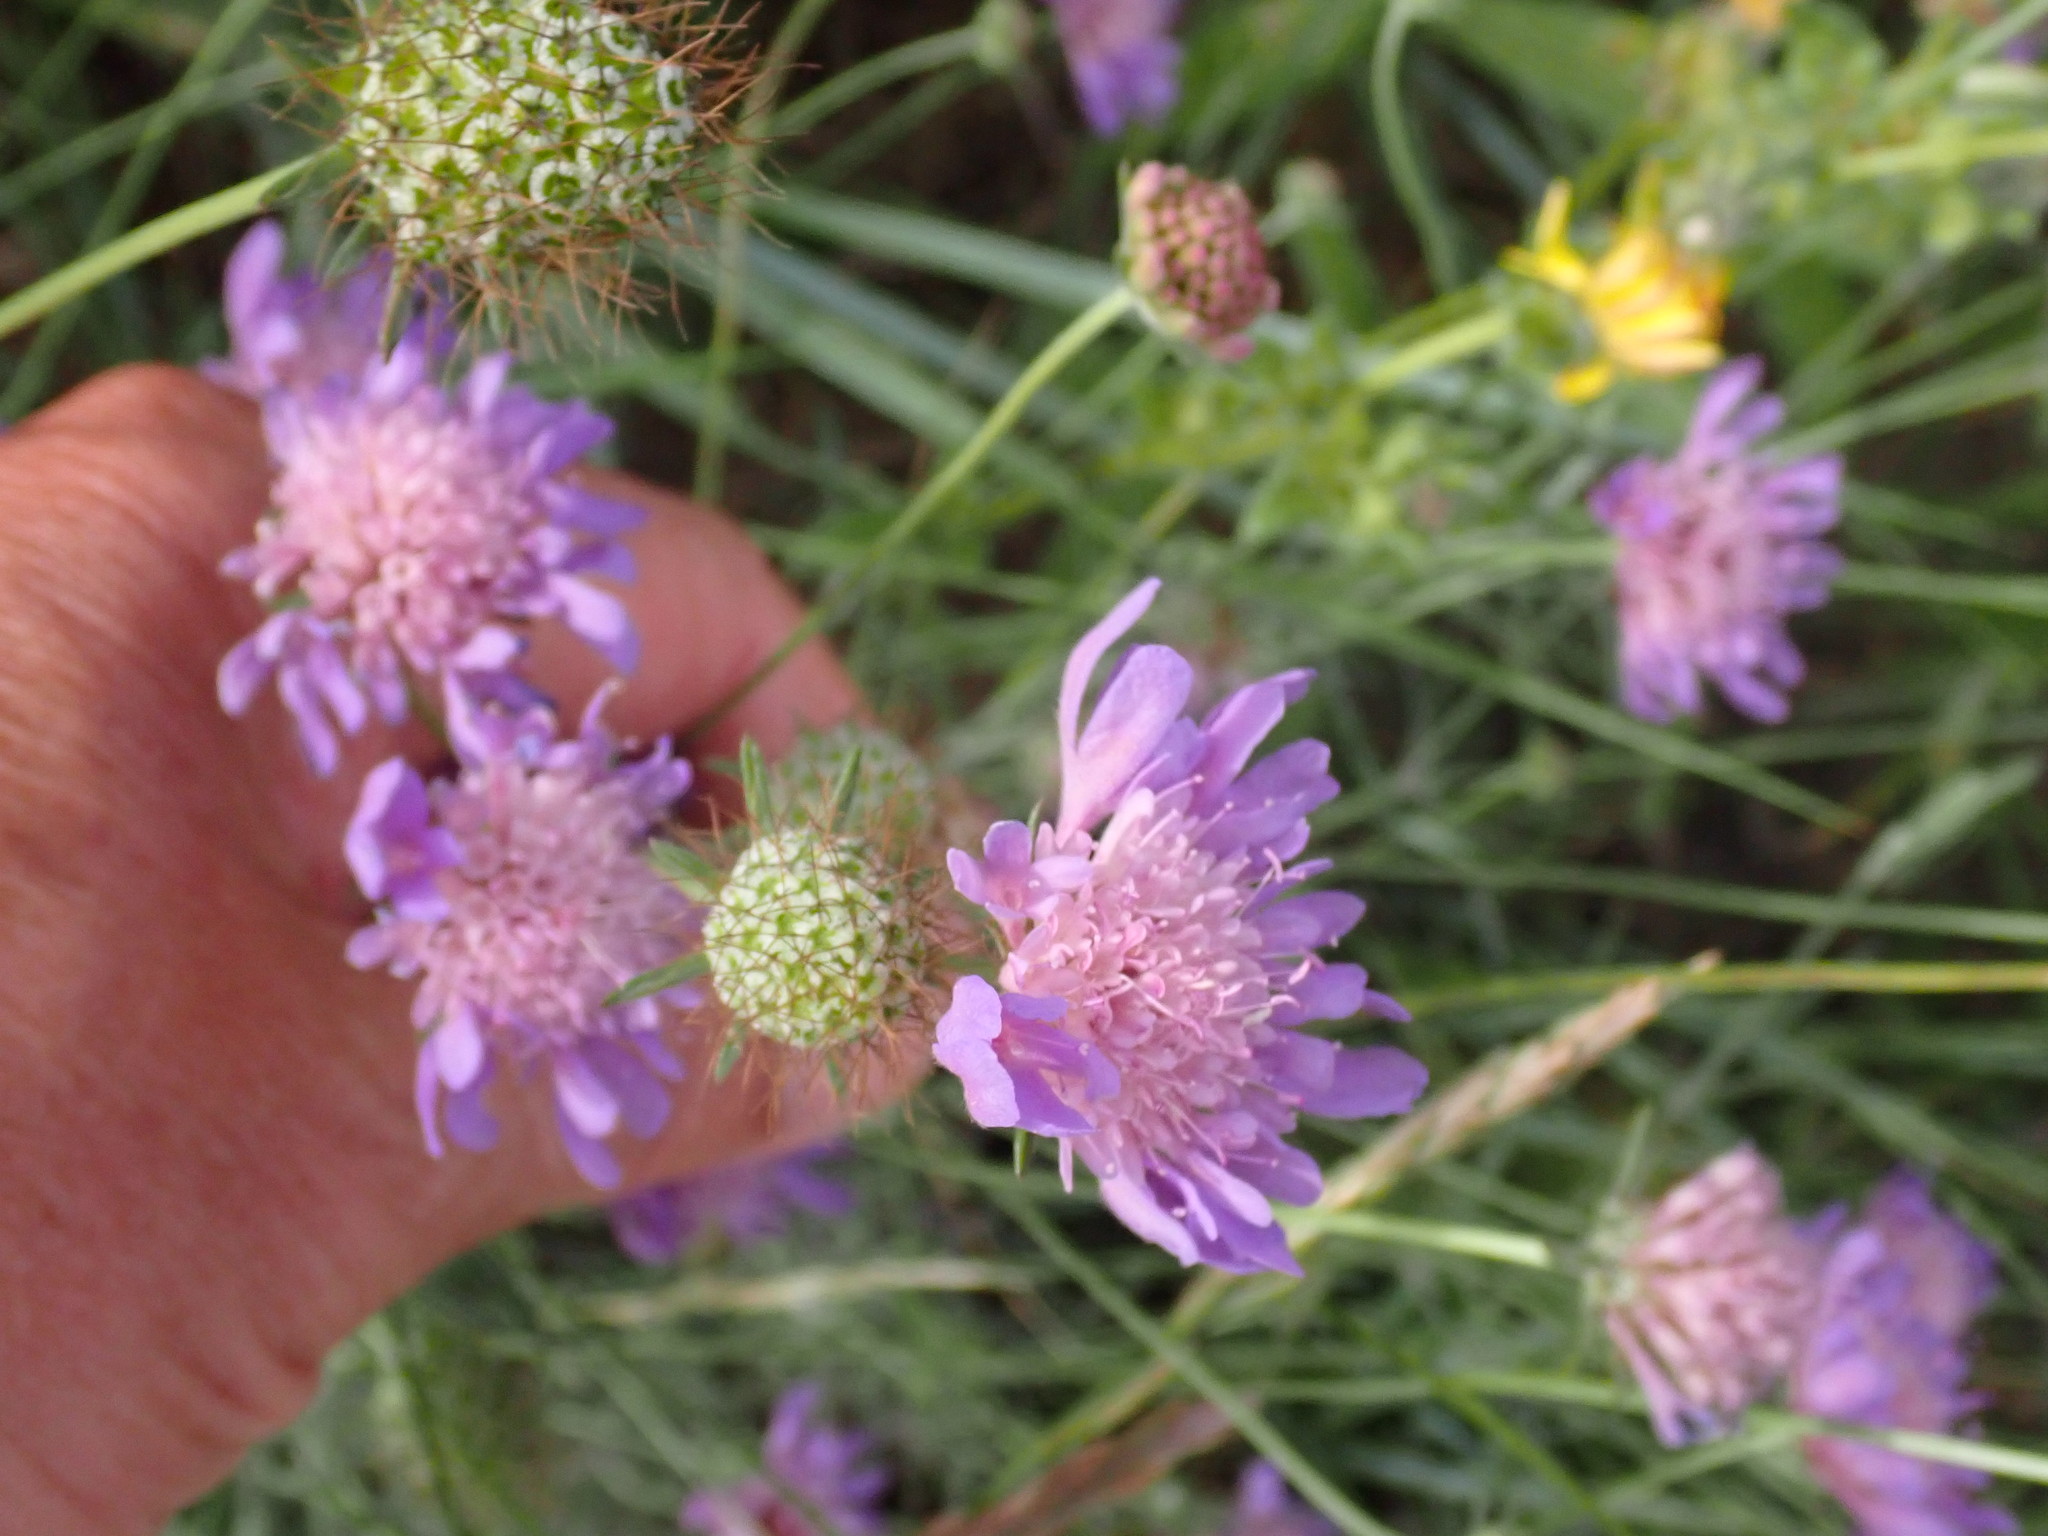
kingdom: Plantae
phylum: Tracheophyta
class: Magnoliopsida
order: Dipsacales
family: Caprifoliaceae
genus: Scabiosa
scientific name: Scabiosa columbaria
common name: Small scabious
